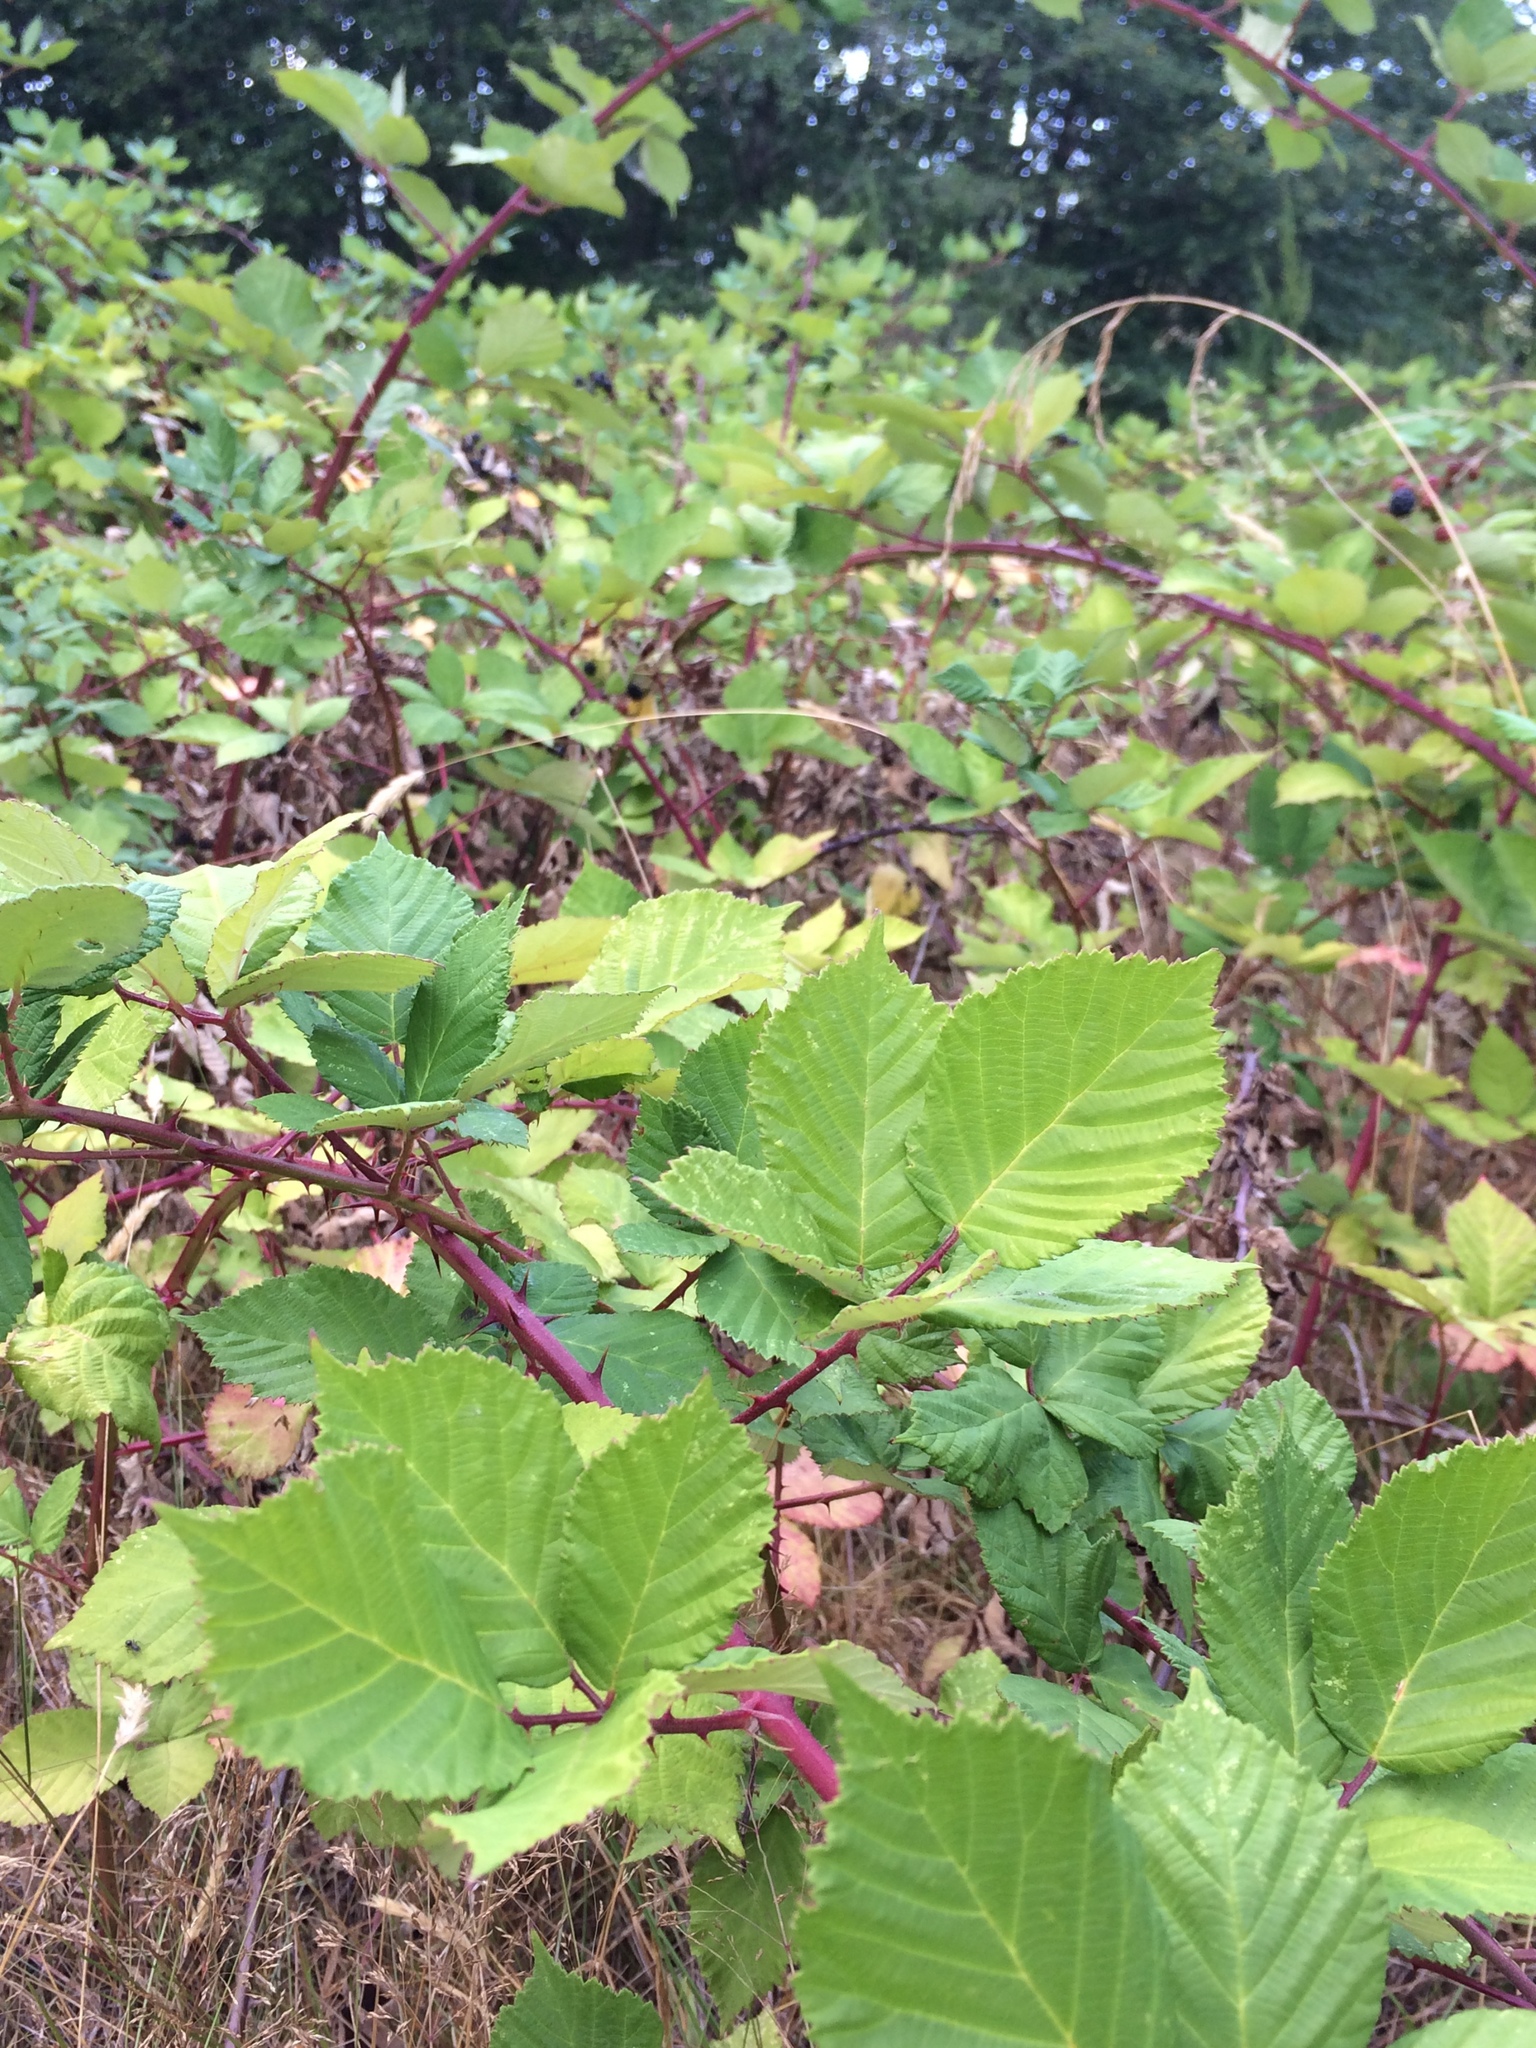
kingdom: Plantae
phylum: Tracheophyta
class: Magnoliopsida
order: Rosales
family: Rosaceae
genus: Rubus
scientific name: Rubus armeniacus
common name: Himalayan blackberry
